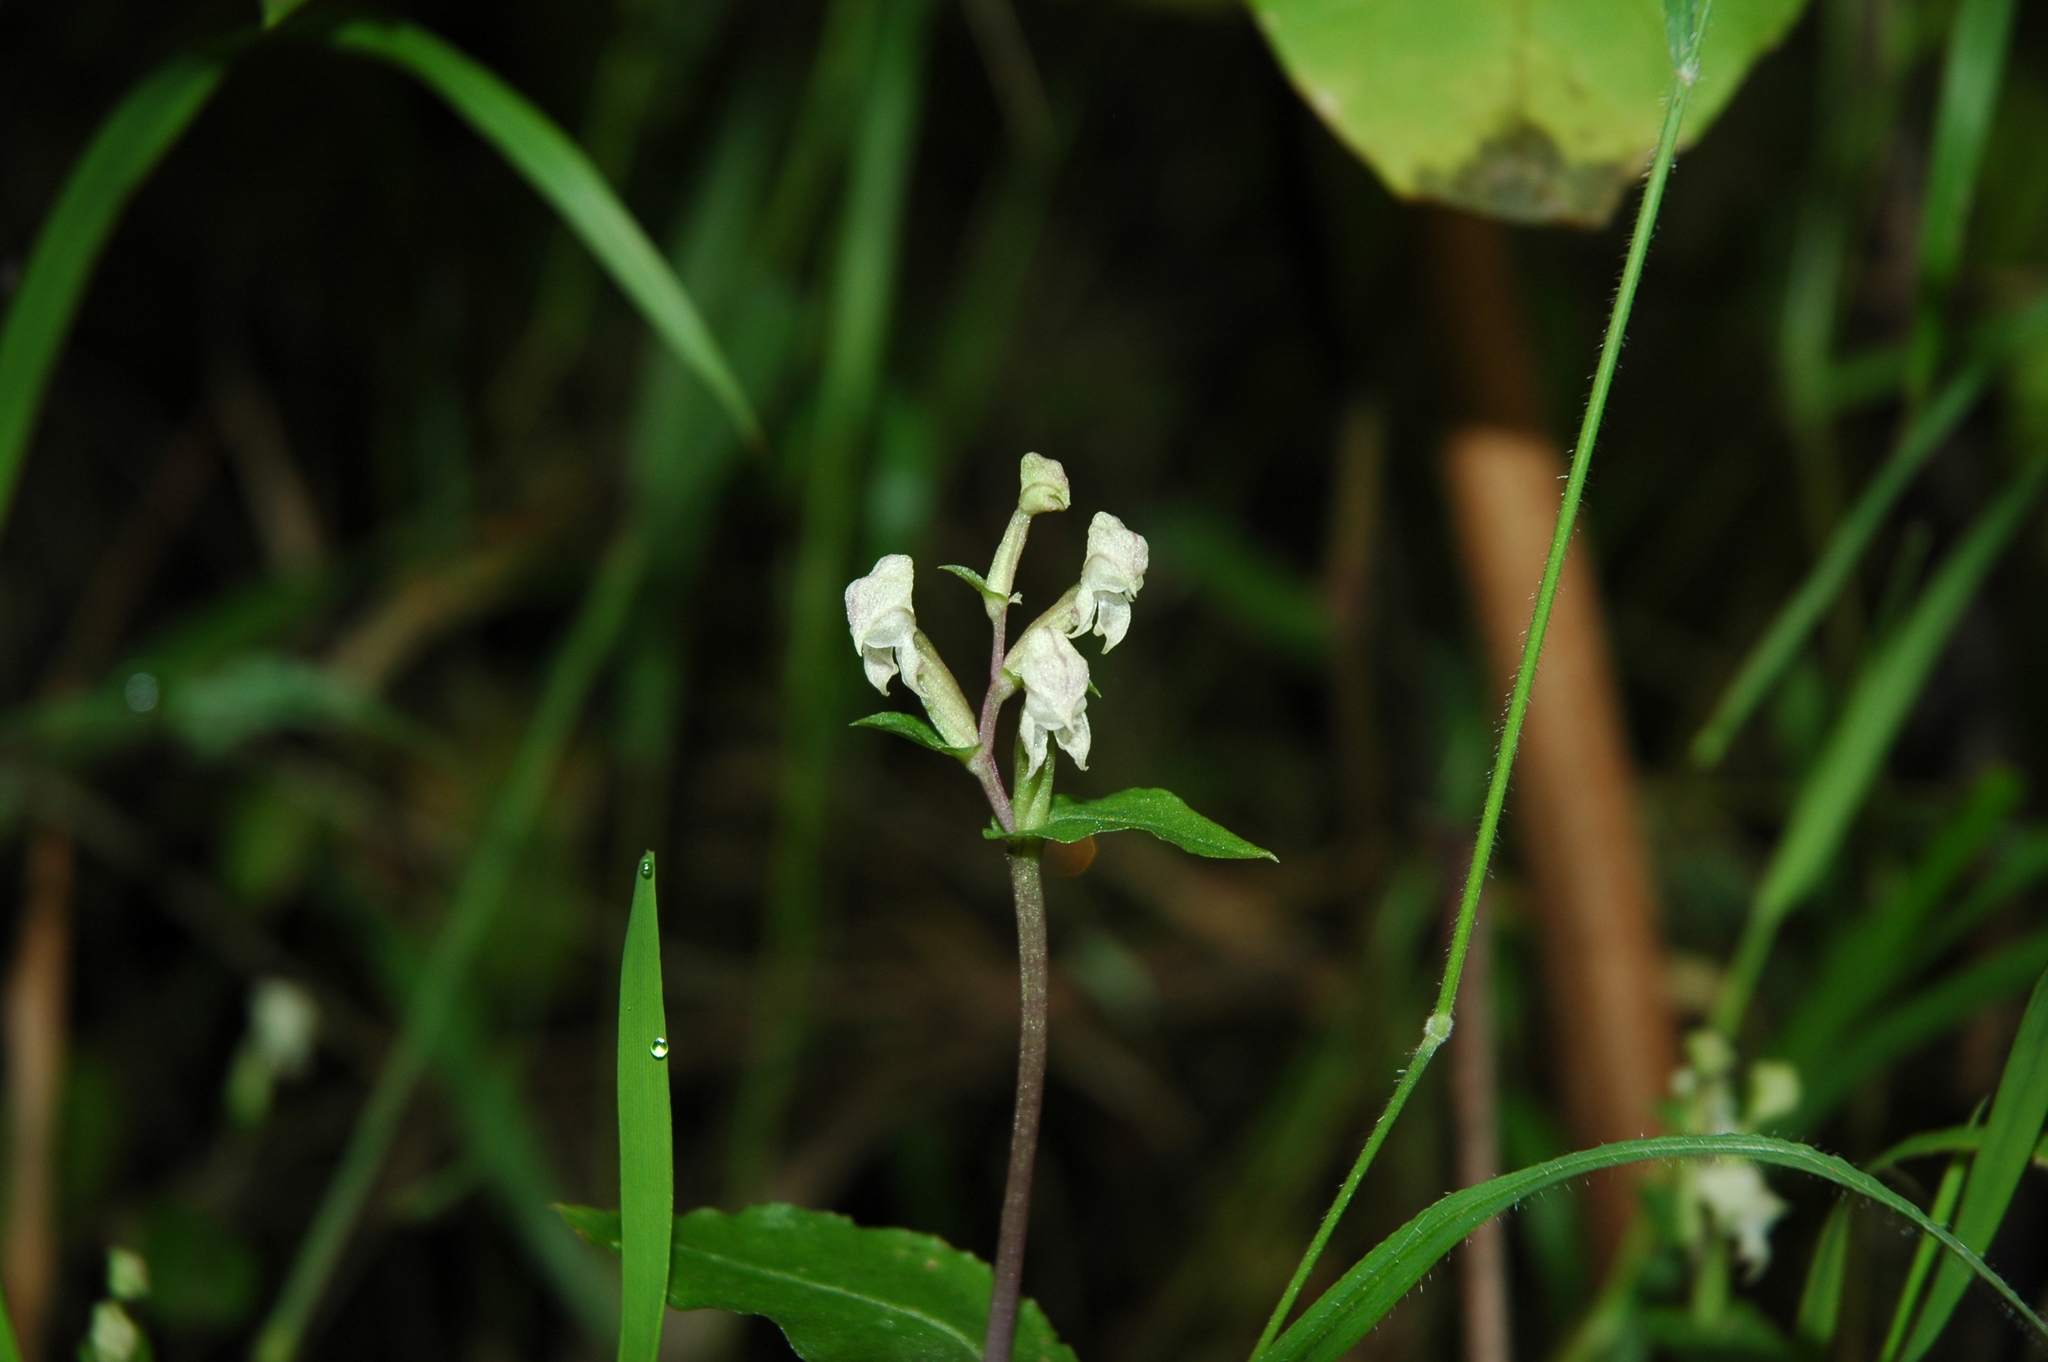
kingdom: Plantae
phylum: Tracheophyta
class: Liliopsida
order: Asparagales
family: Orchidaceae
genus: Disperis
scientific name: Disperis micrantha
